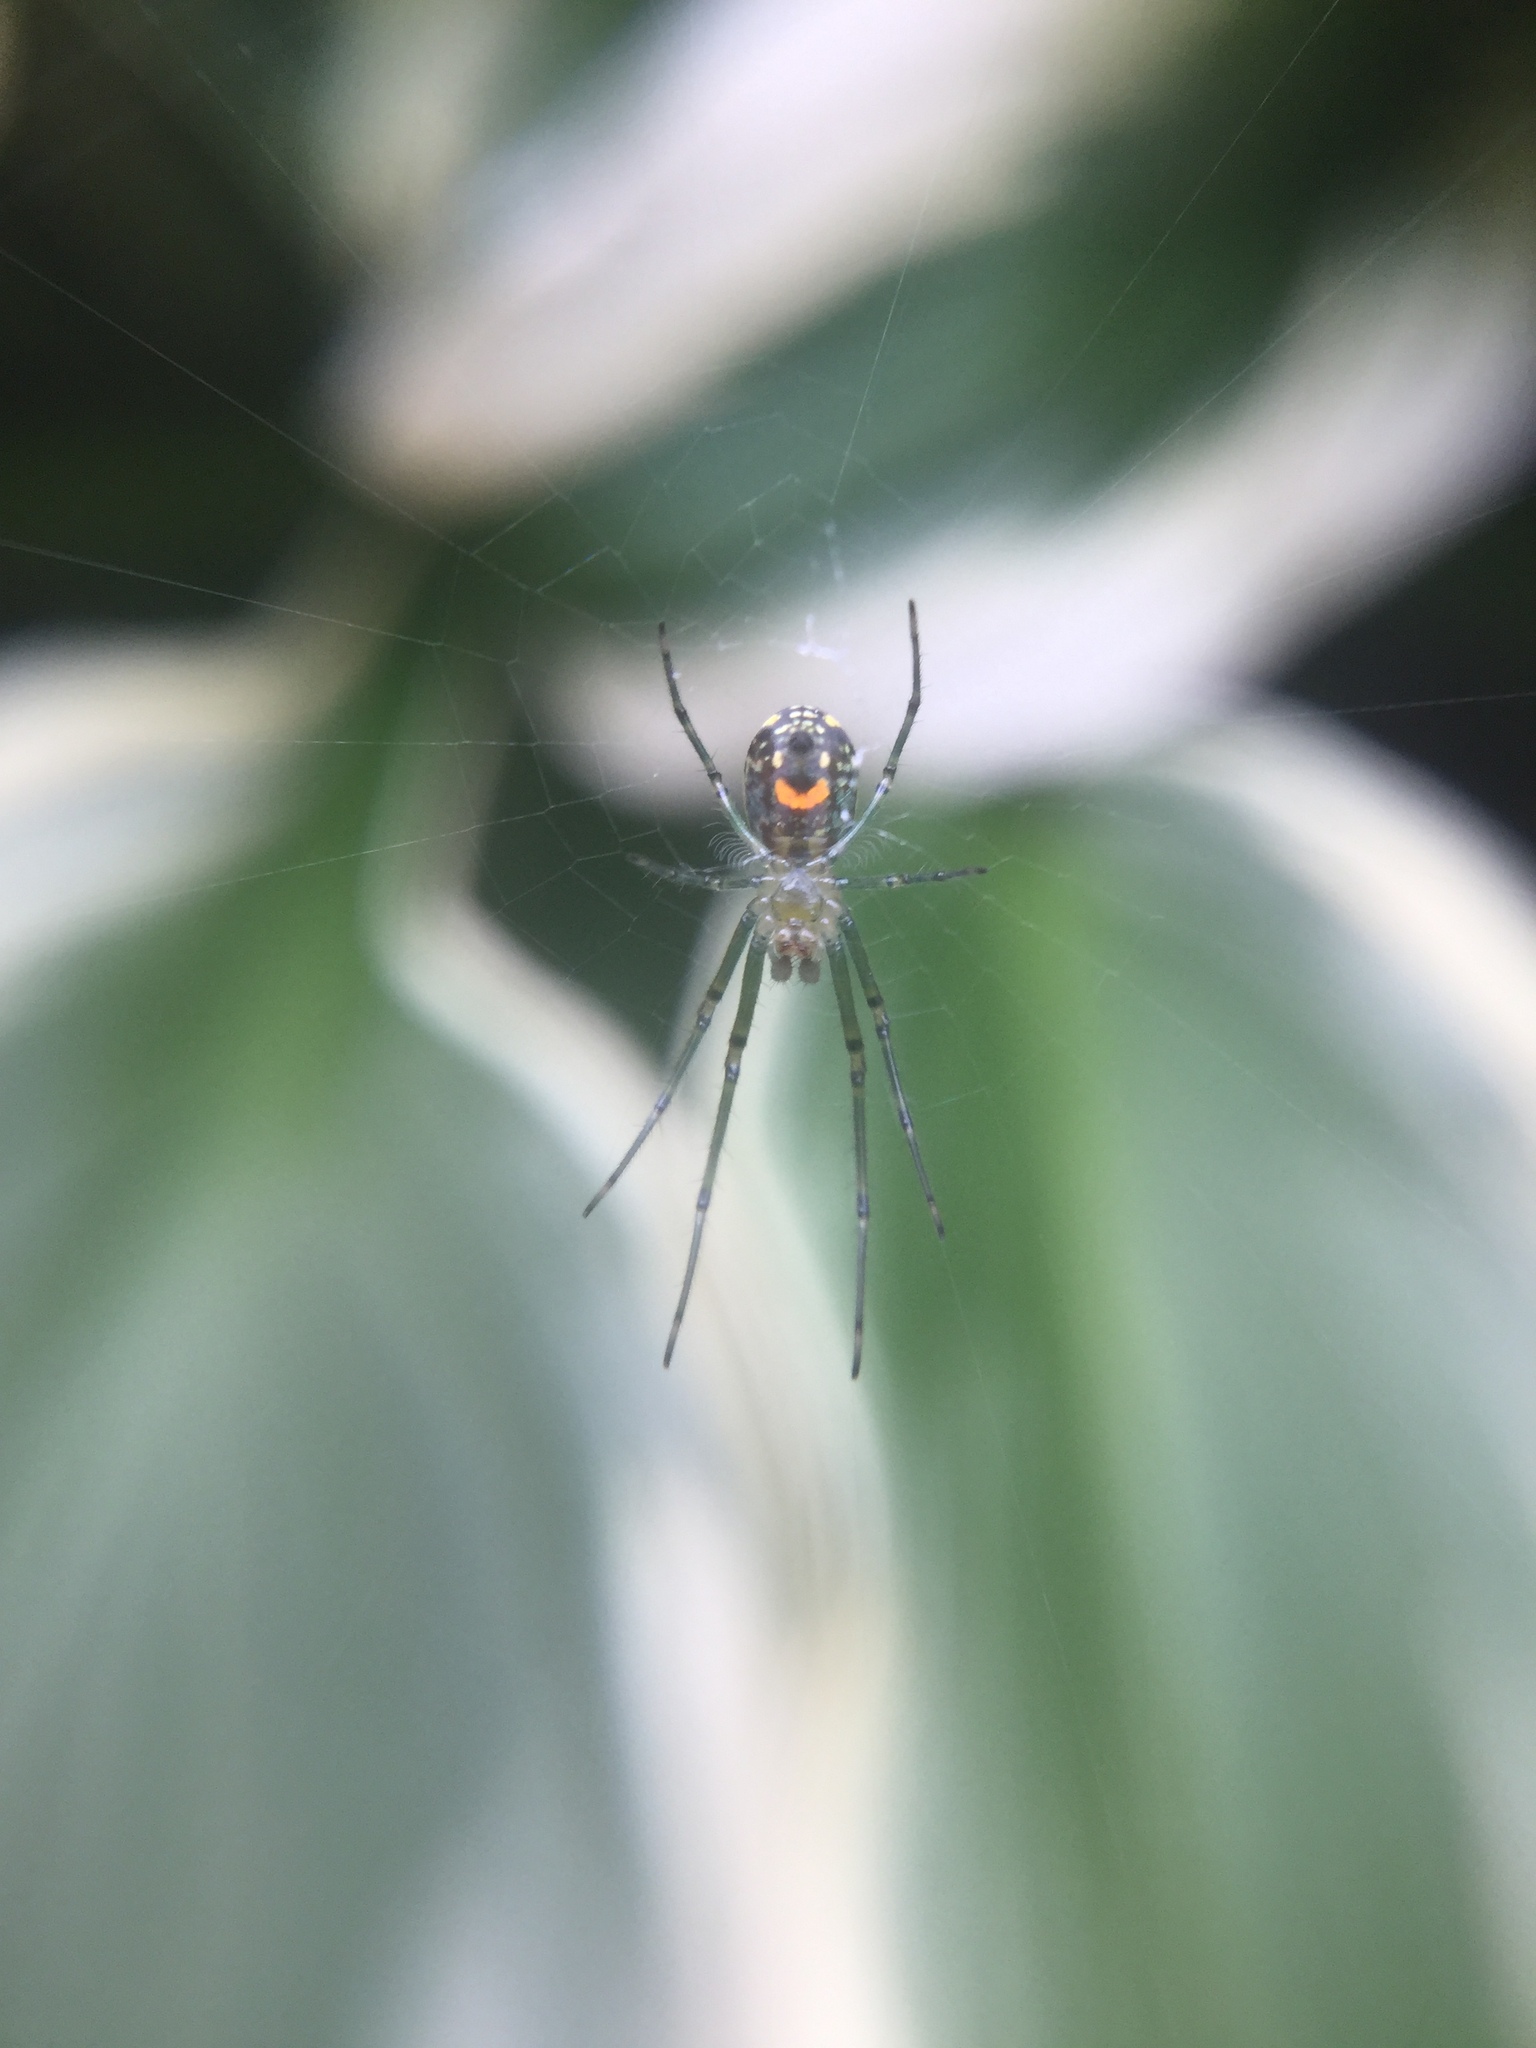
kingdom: Animalia
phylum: Arthropoda
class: Arachnida
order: Araneae
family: Tetragnathidae
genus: Leucauge
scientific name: Leucauge venusta
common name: Longjawed orb weavers
